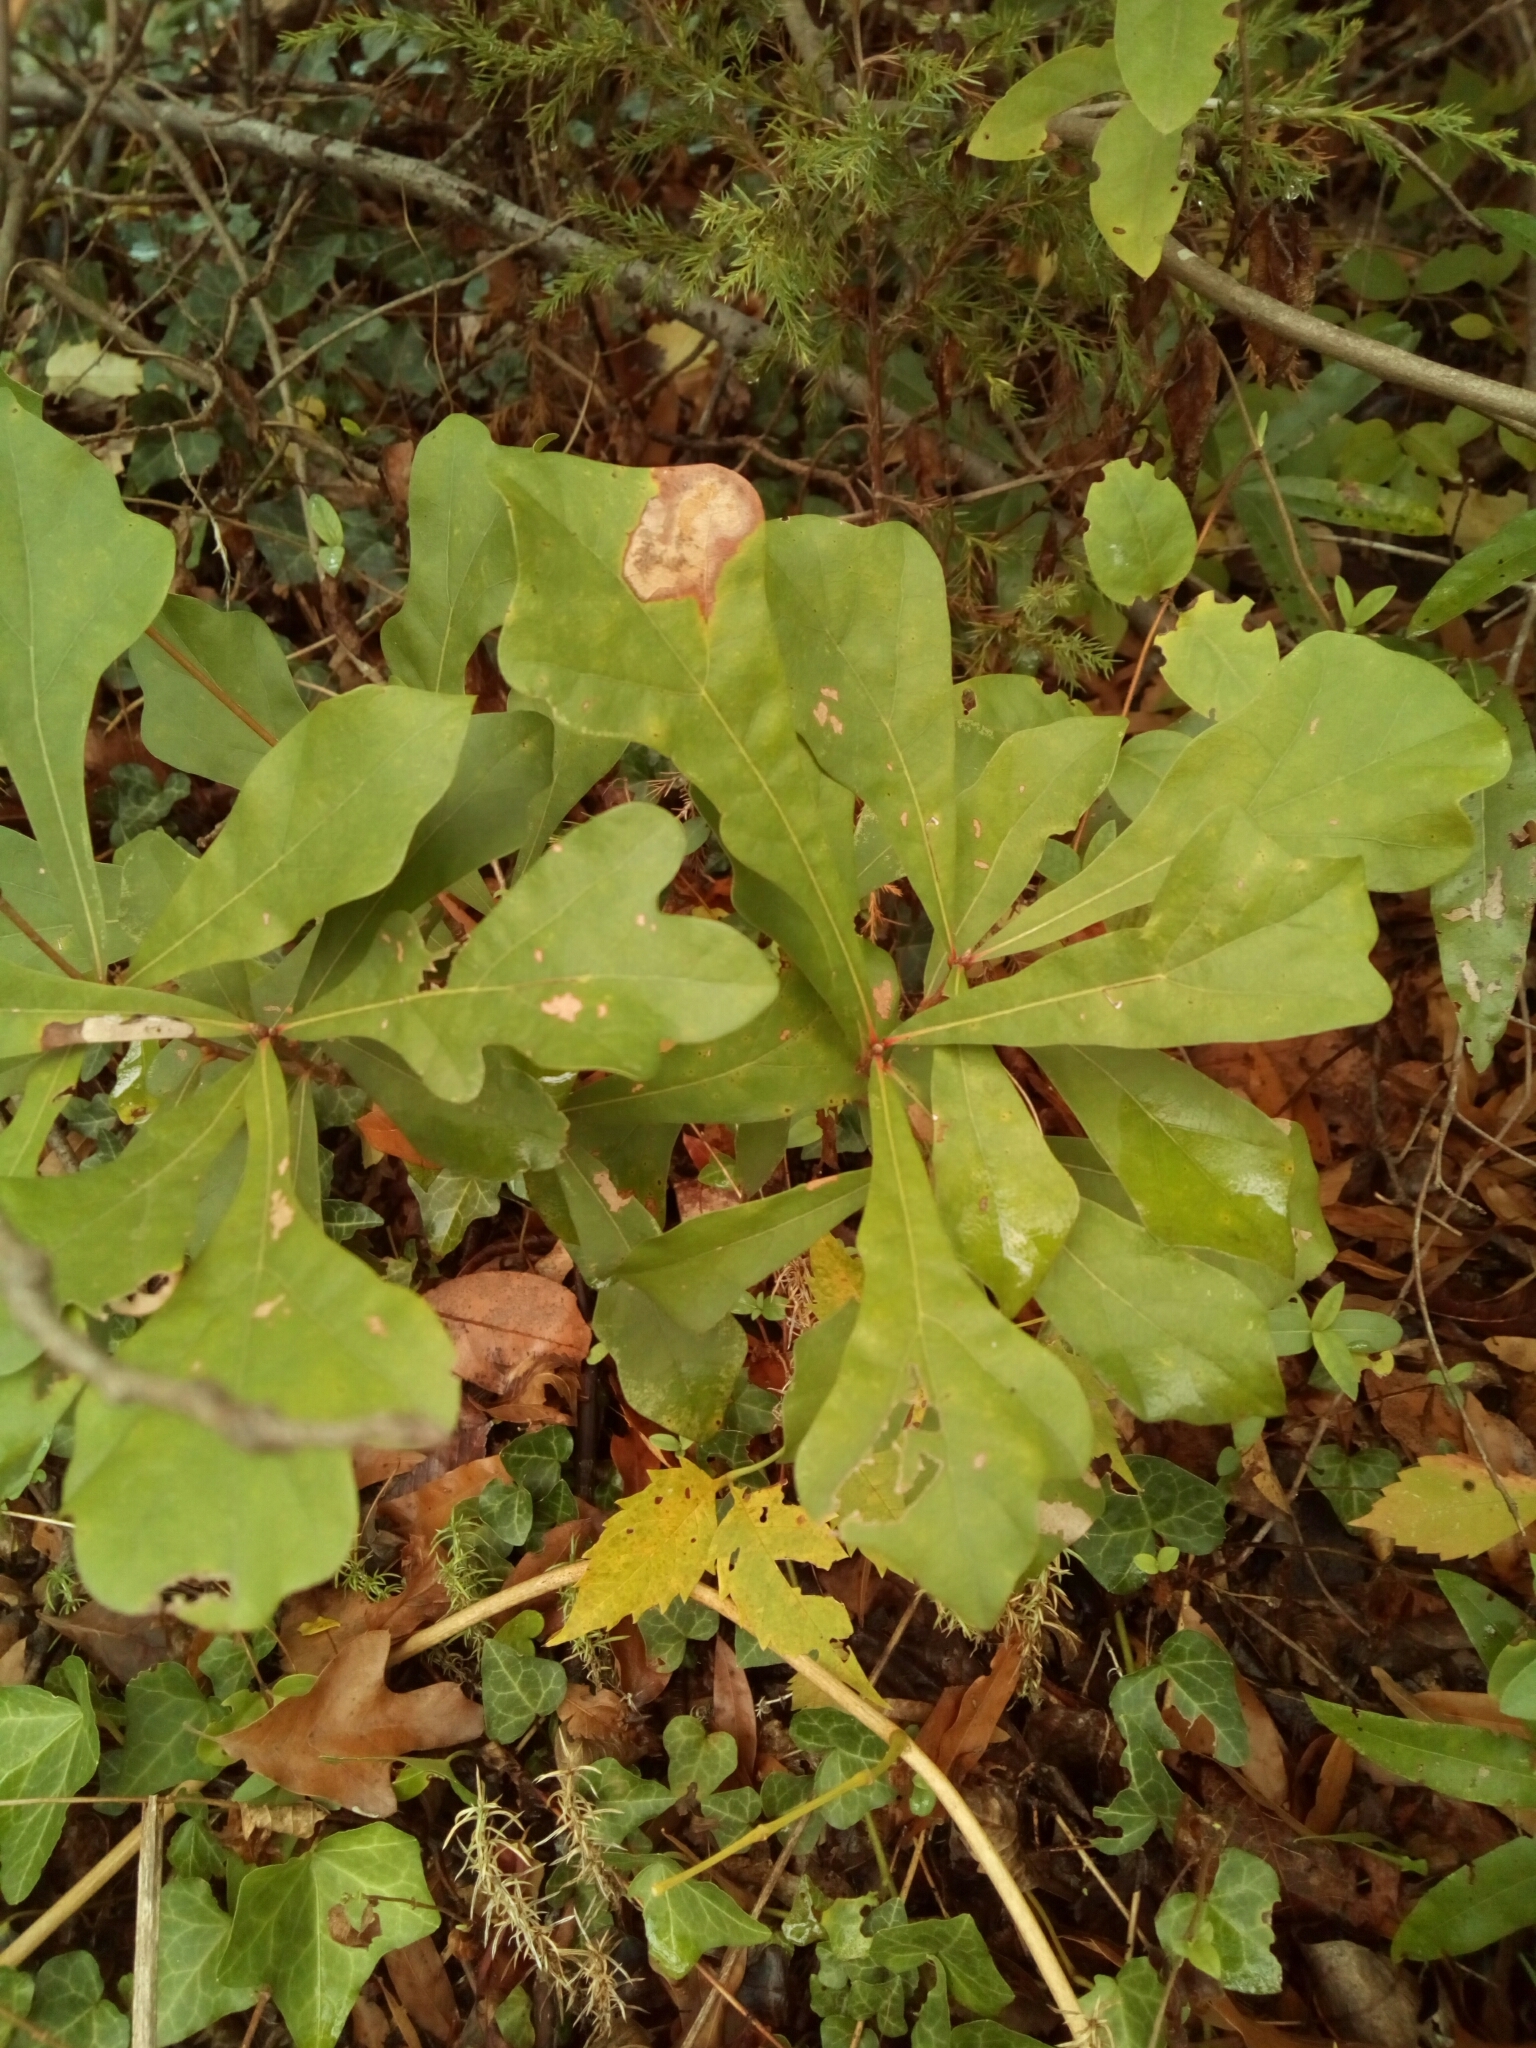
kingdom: Plantae
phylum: Tracheophyta
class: Magnoliopsida
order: Fagales
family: Fagaceae
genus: Quercus
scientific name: Quercus nigra
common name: Water oak
